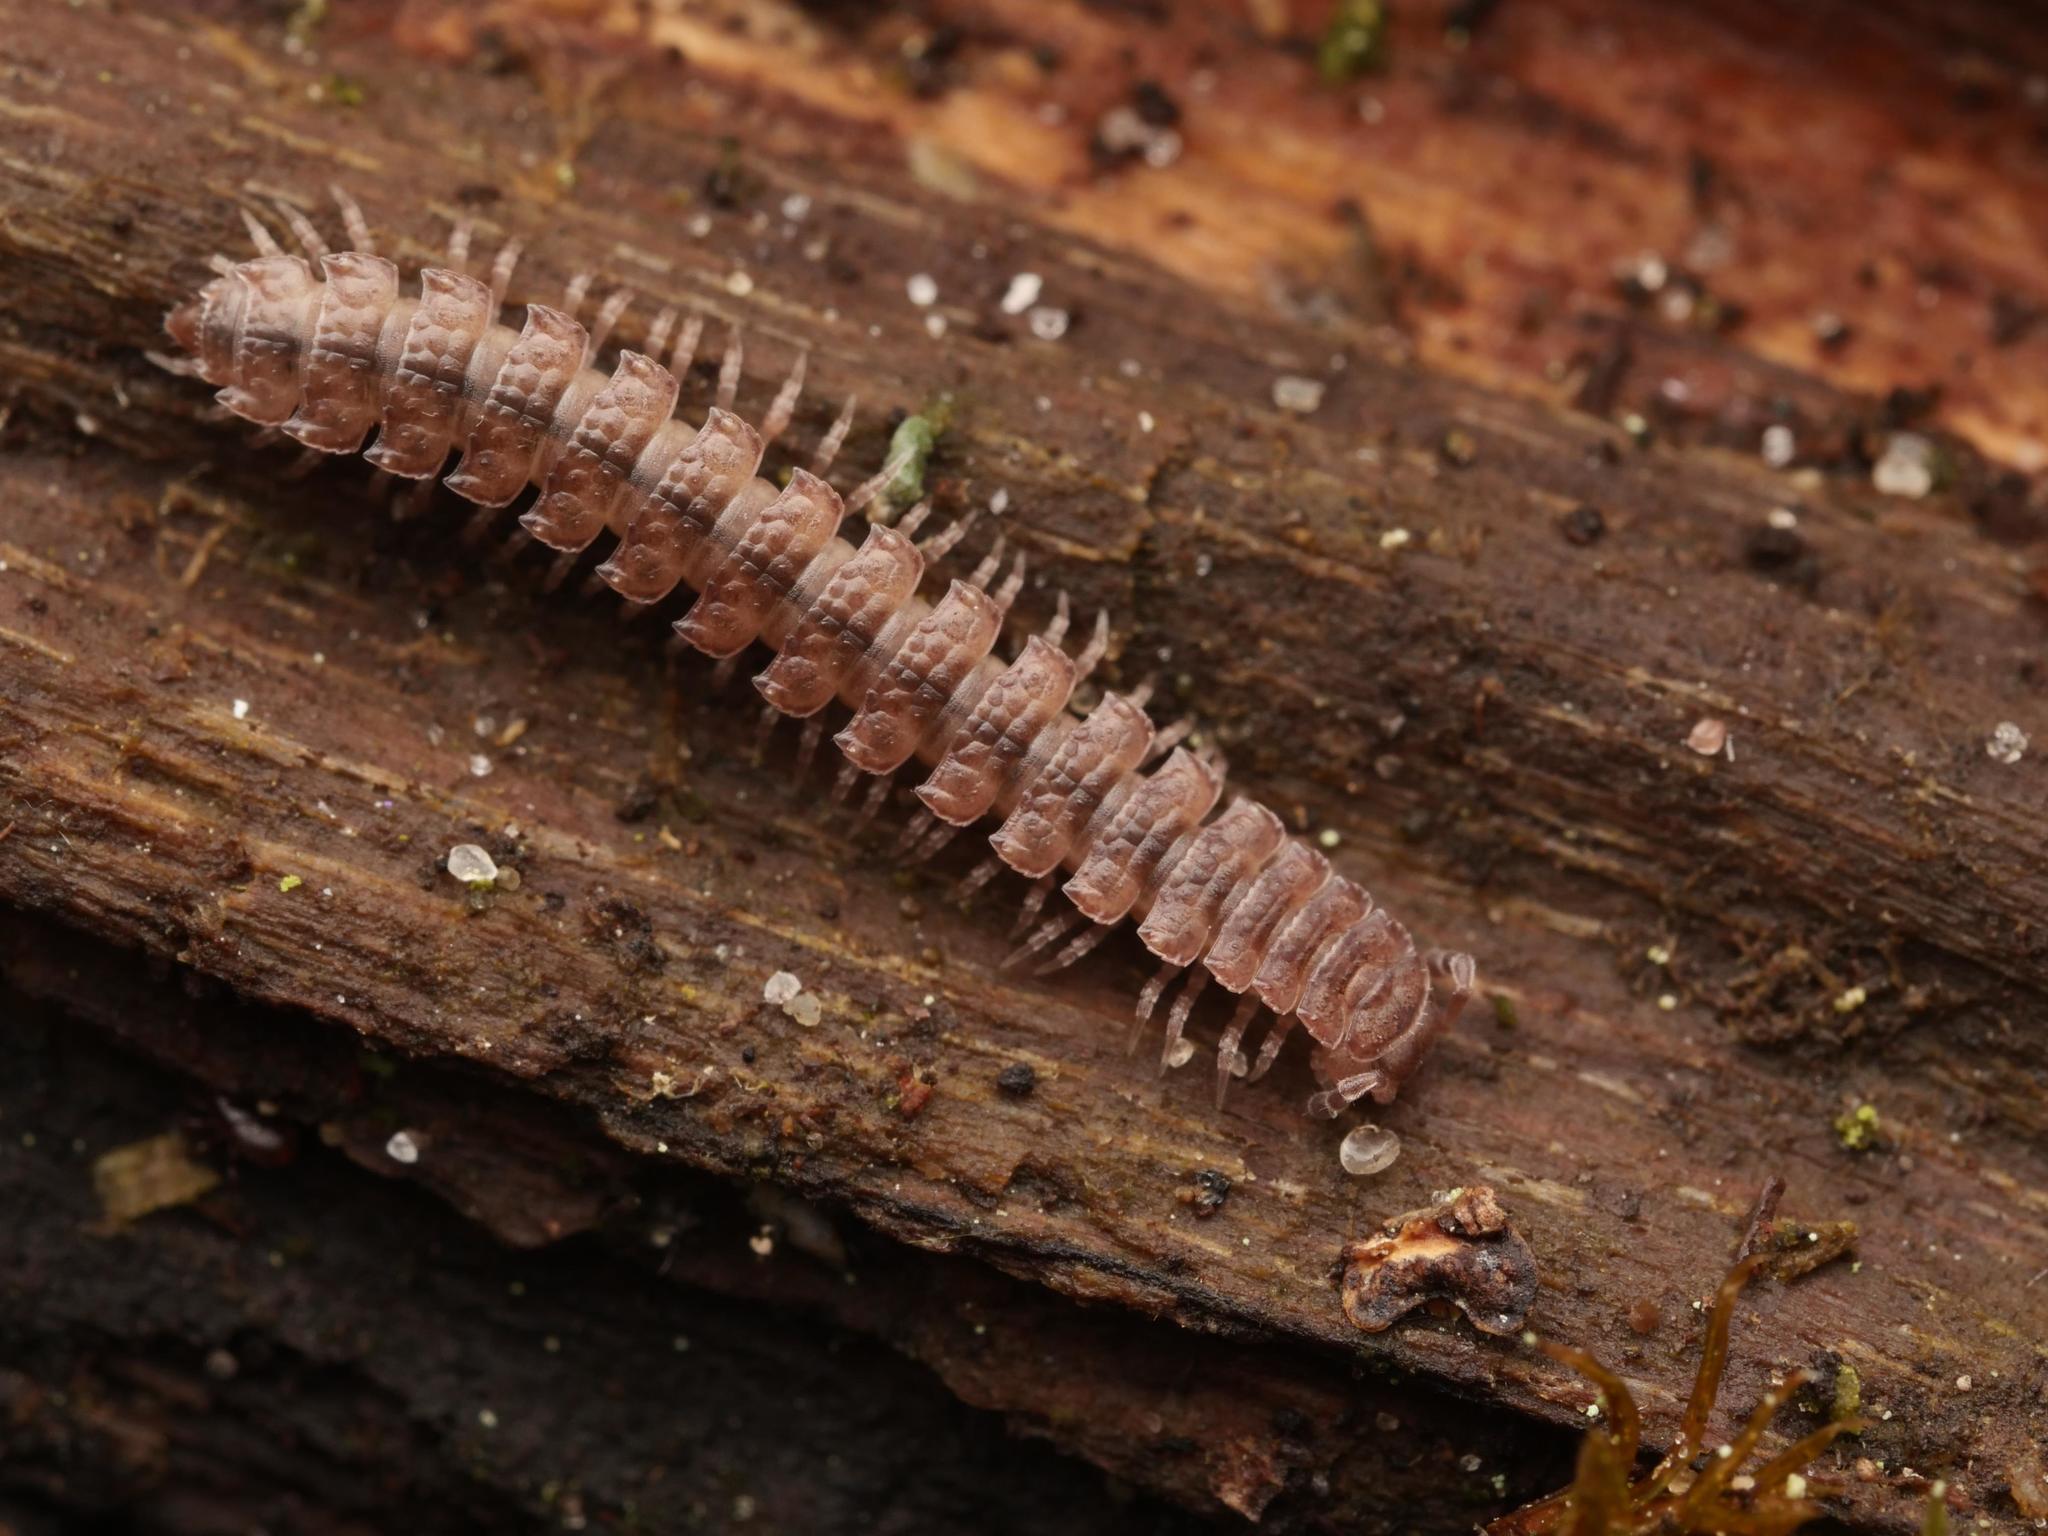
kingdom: Animalia
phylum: Arthropoda
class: Diplopoda
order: Polydesmida
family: Polydesmidae
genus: Polydesmus
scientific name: Polydesmus angustus
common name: Flat millipede
